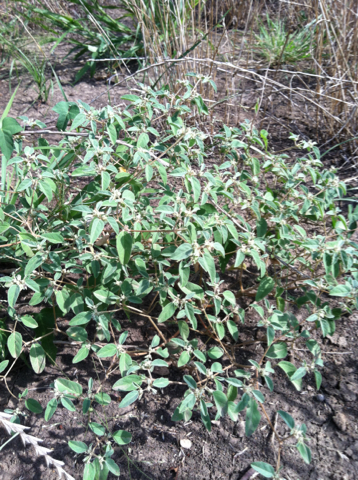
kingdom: Plantae
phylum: Tracheophyta
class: Magnoliopsida
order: Malpighiales
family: Euphorbiaceae
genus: Croton
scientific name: Croton monanthogynus
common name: One-seed croton
